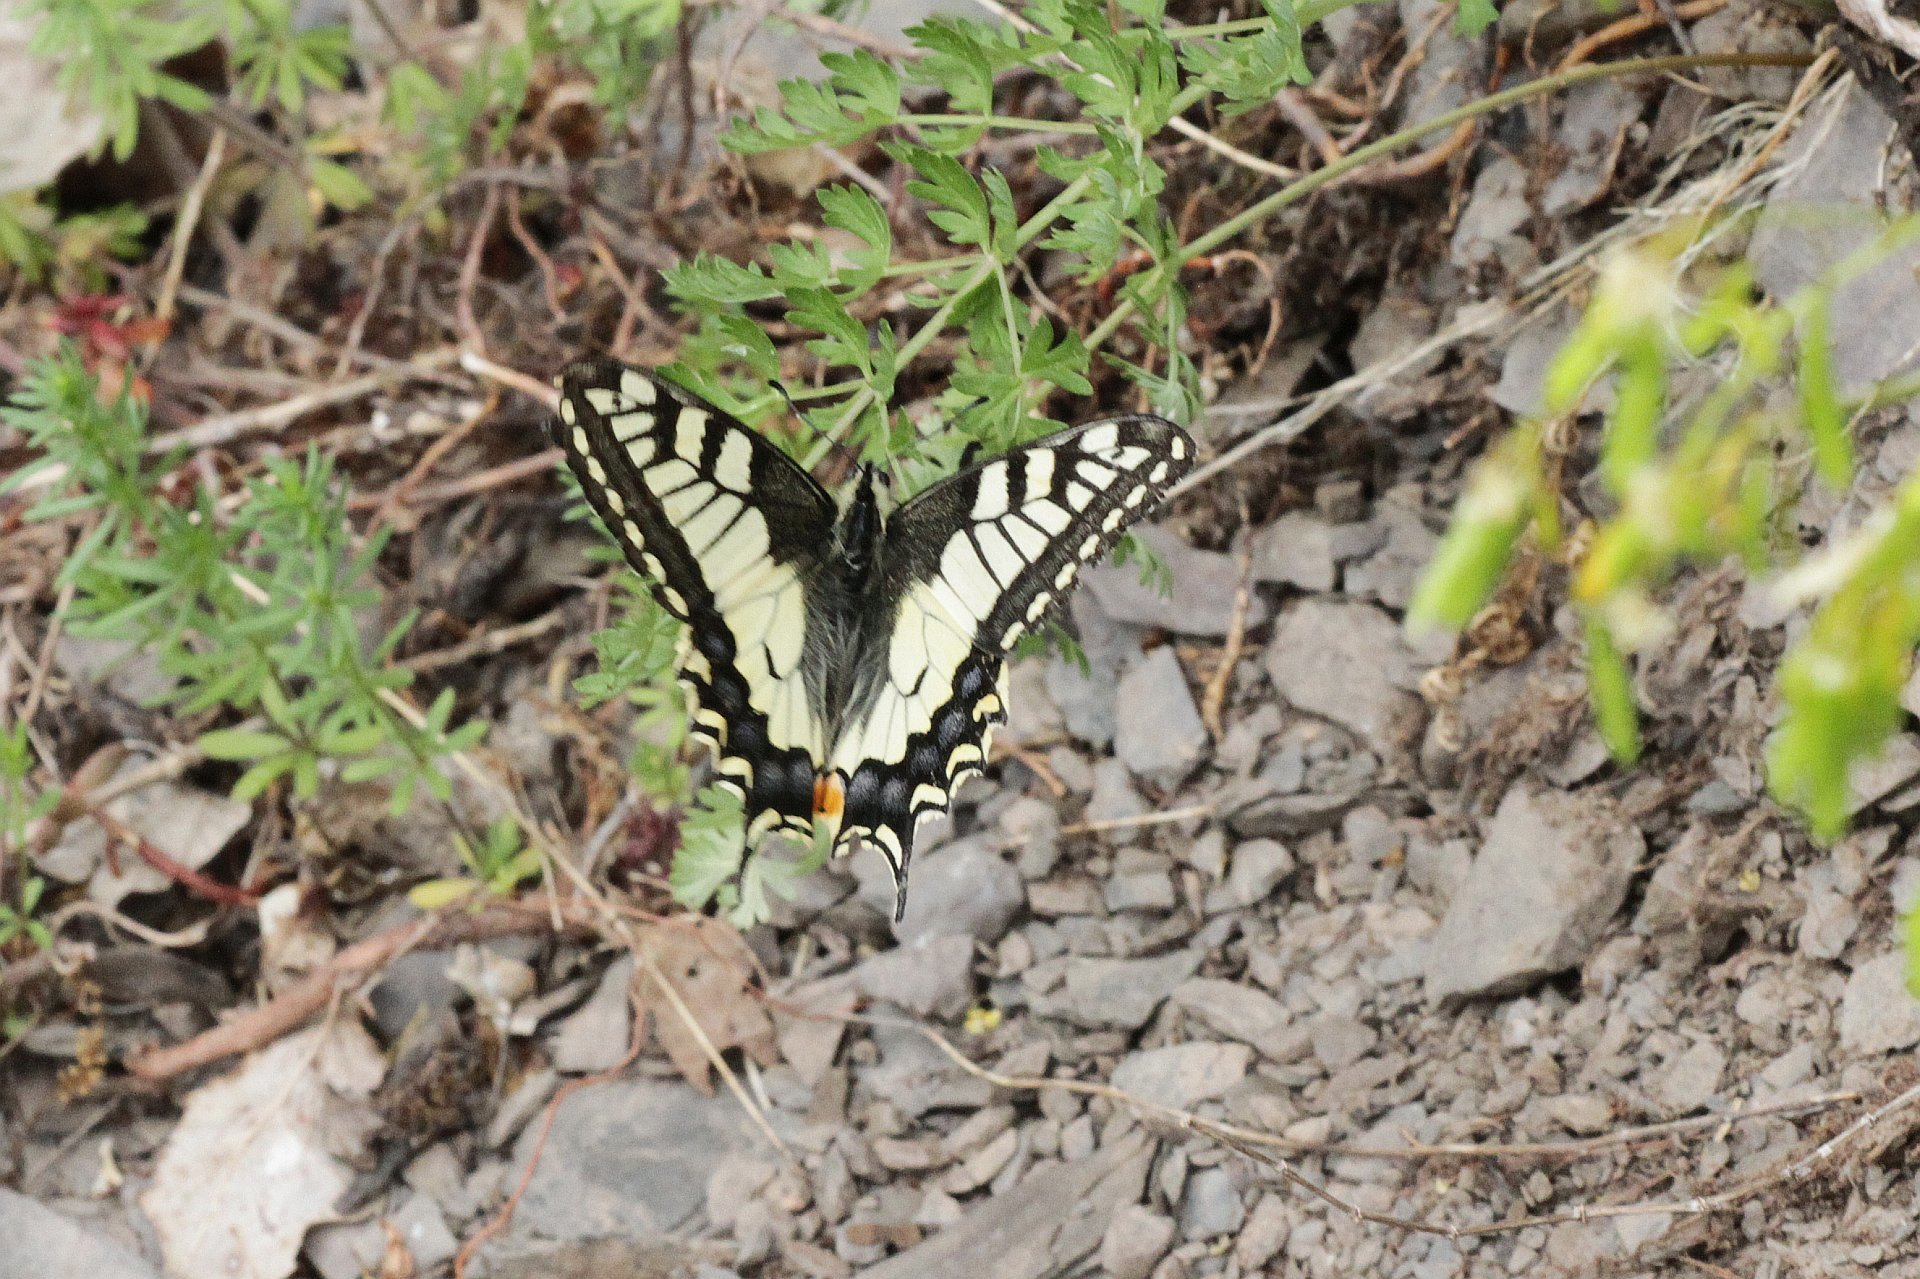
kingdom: Animalia
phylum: Arthropoda
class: Insecta
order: Lepidoptera
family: Papilionidae
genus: Papilio
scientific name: Papilio machaon
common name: Swallowtail
